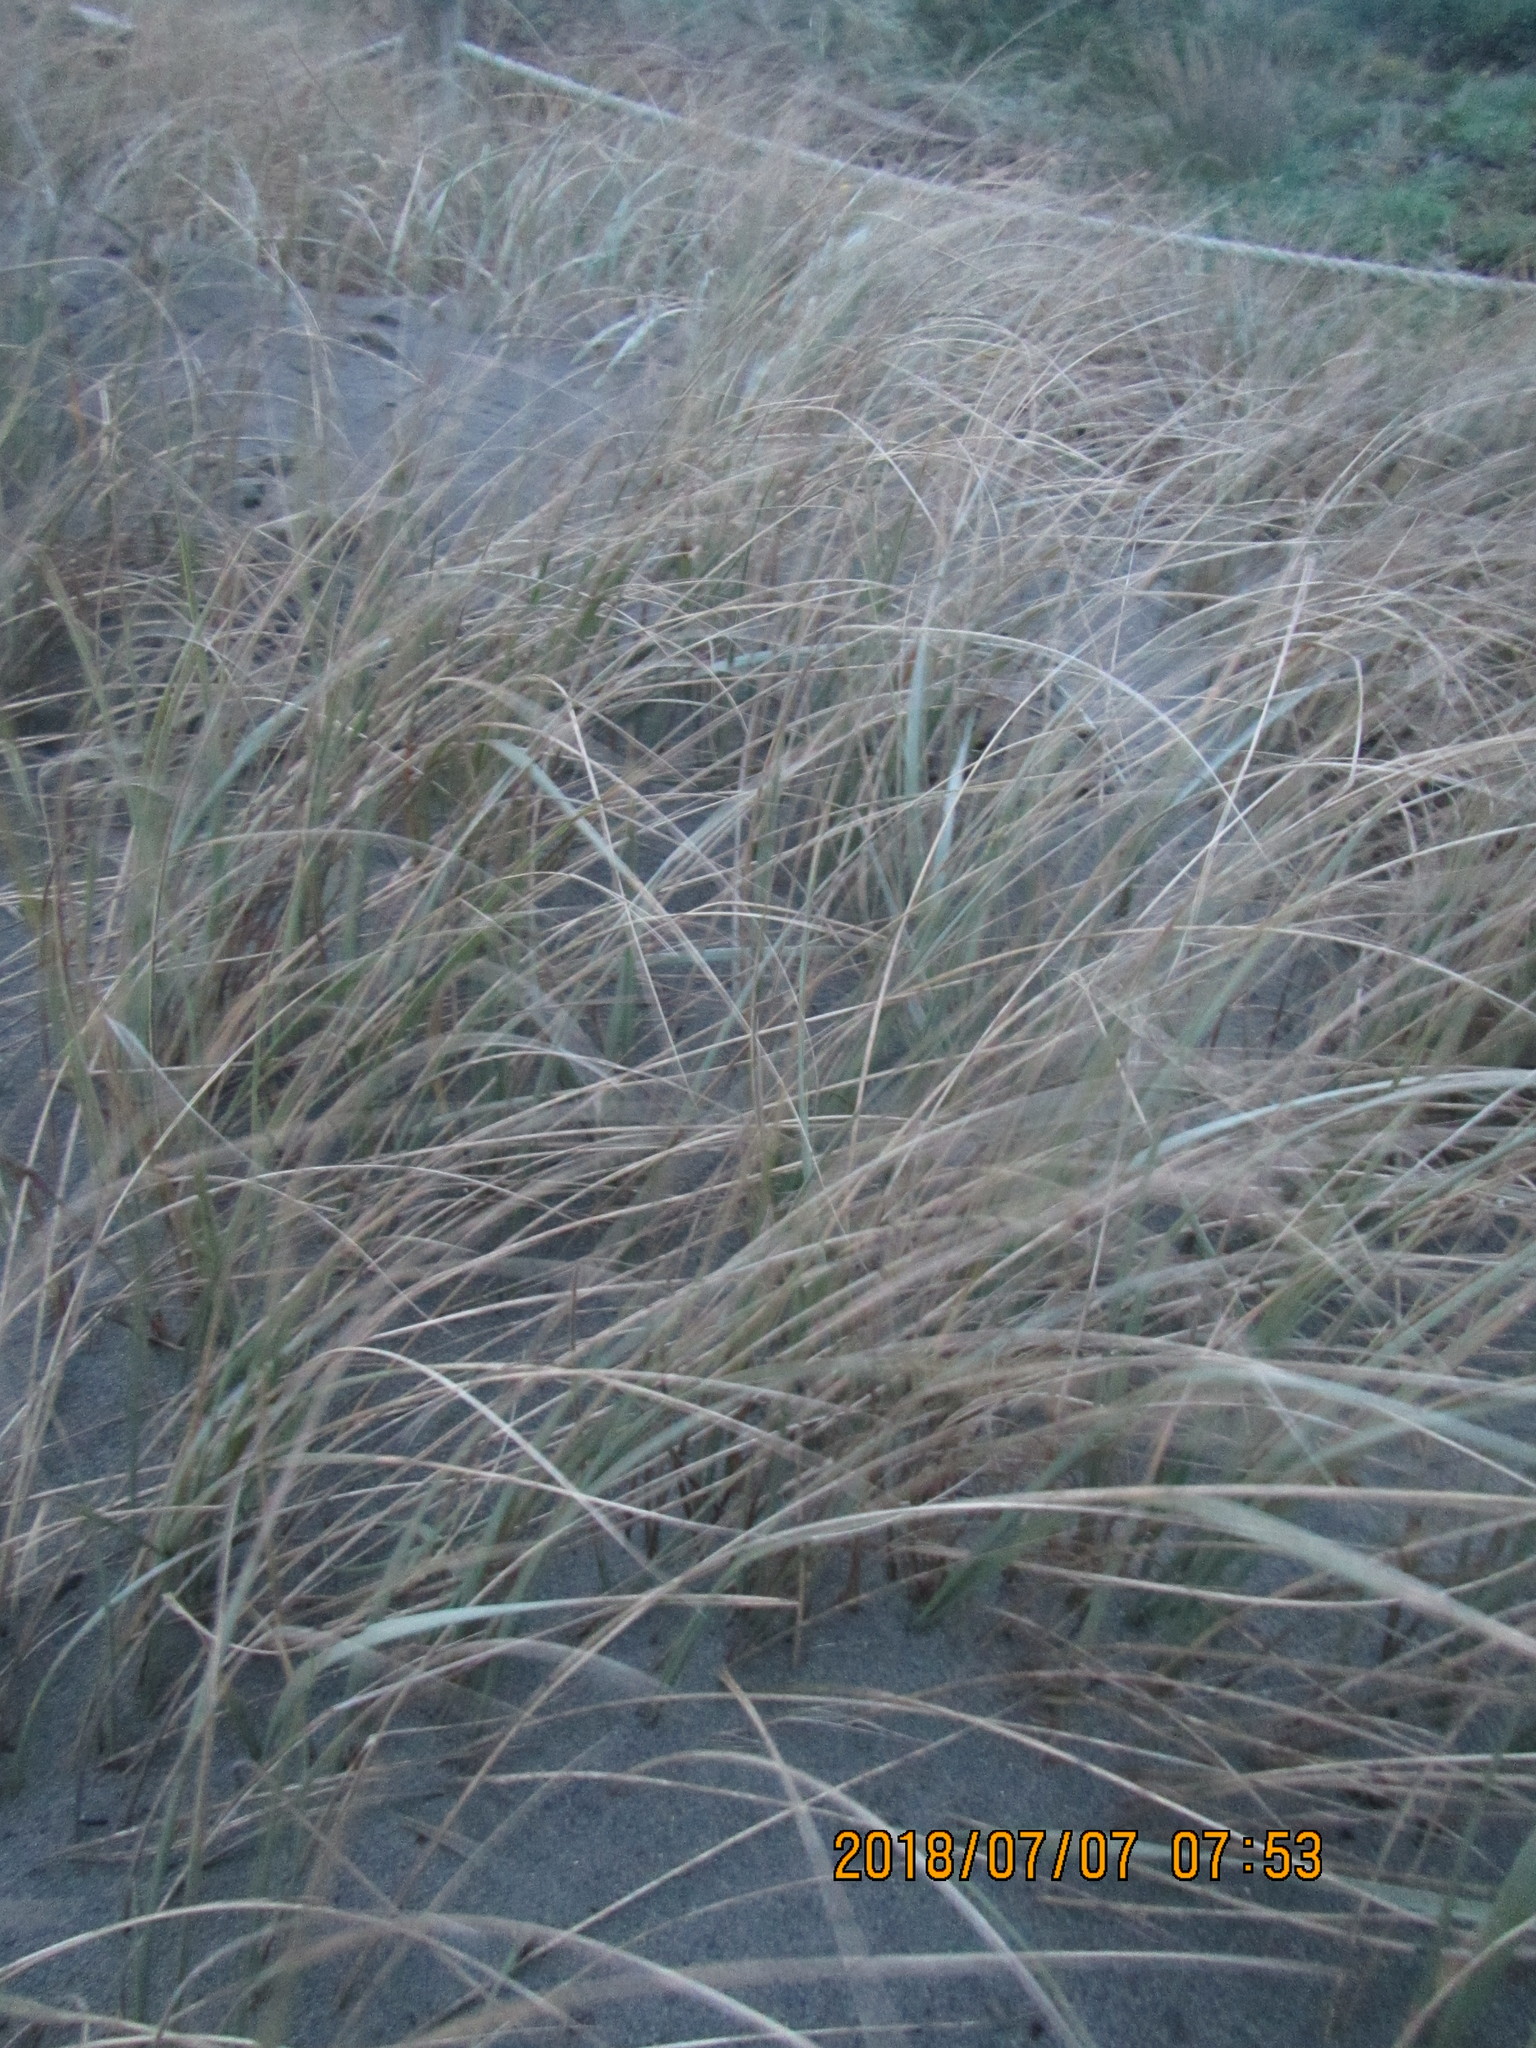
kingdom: Plantae
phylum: Tracheophyta
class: Liliopsida
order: Poales
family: Poaceae
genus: Spinifex
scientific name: Spinifex sericeus
